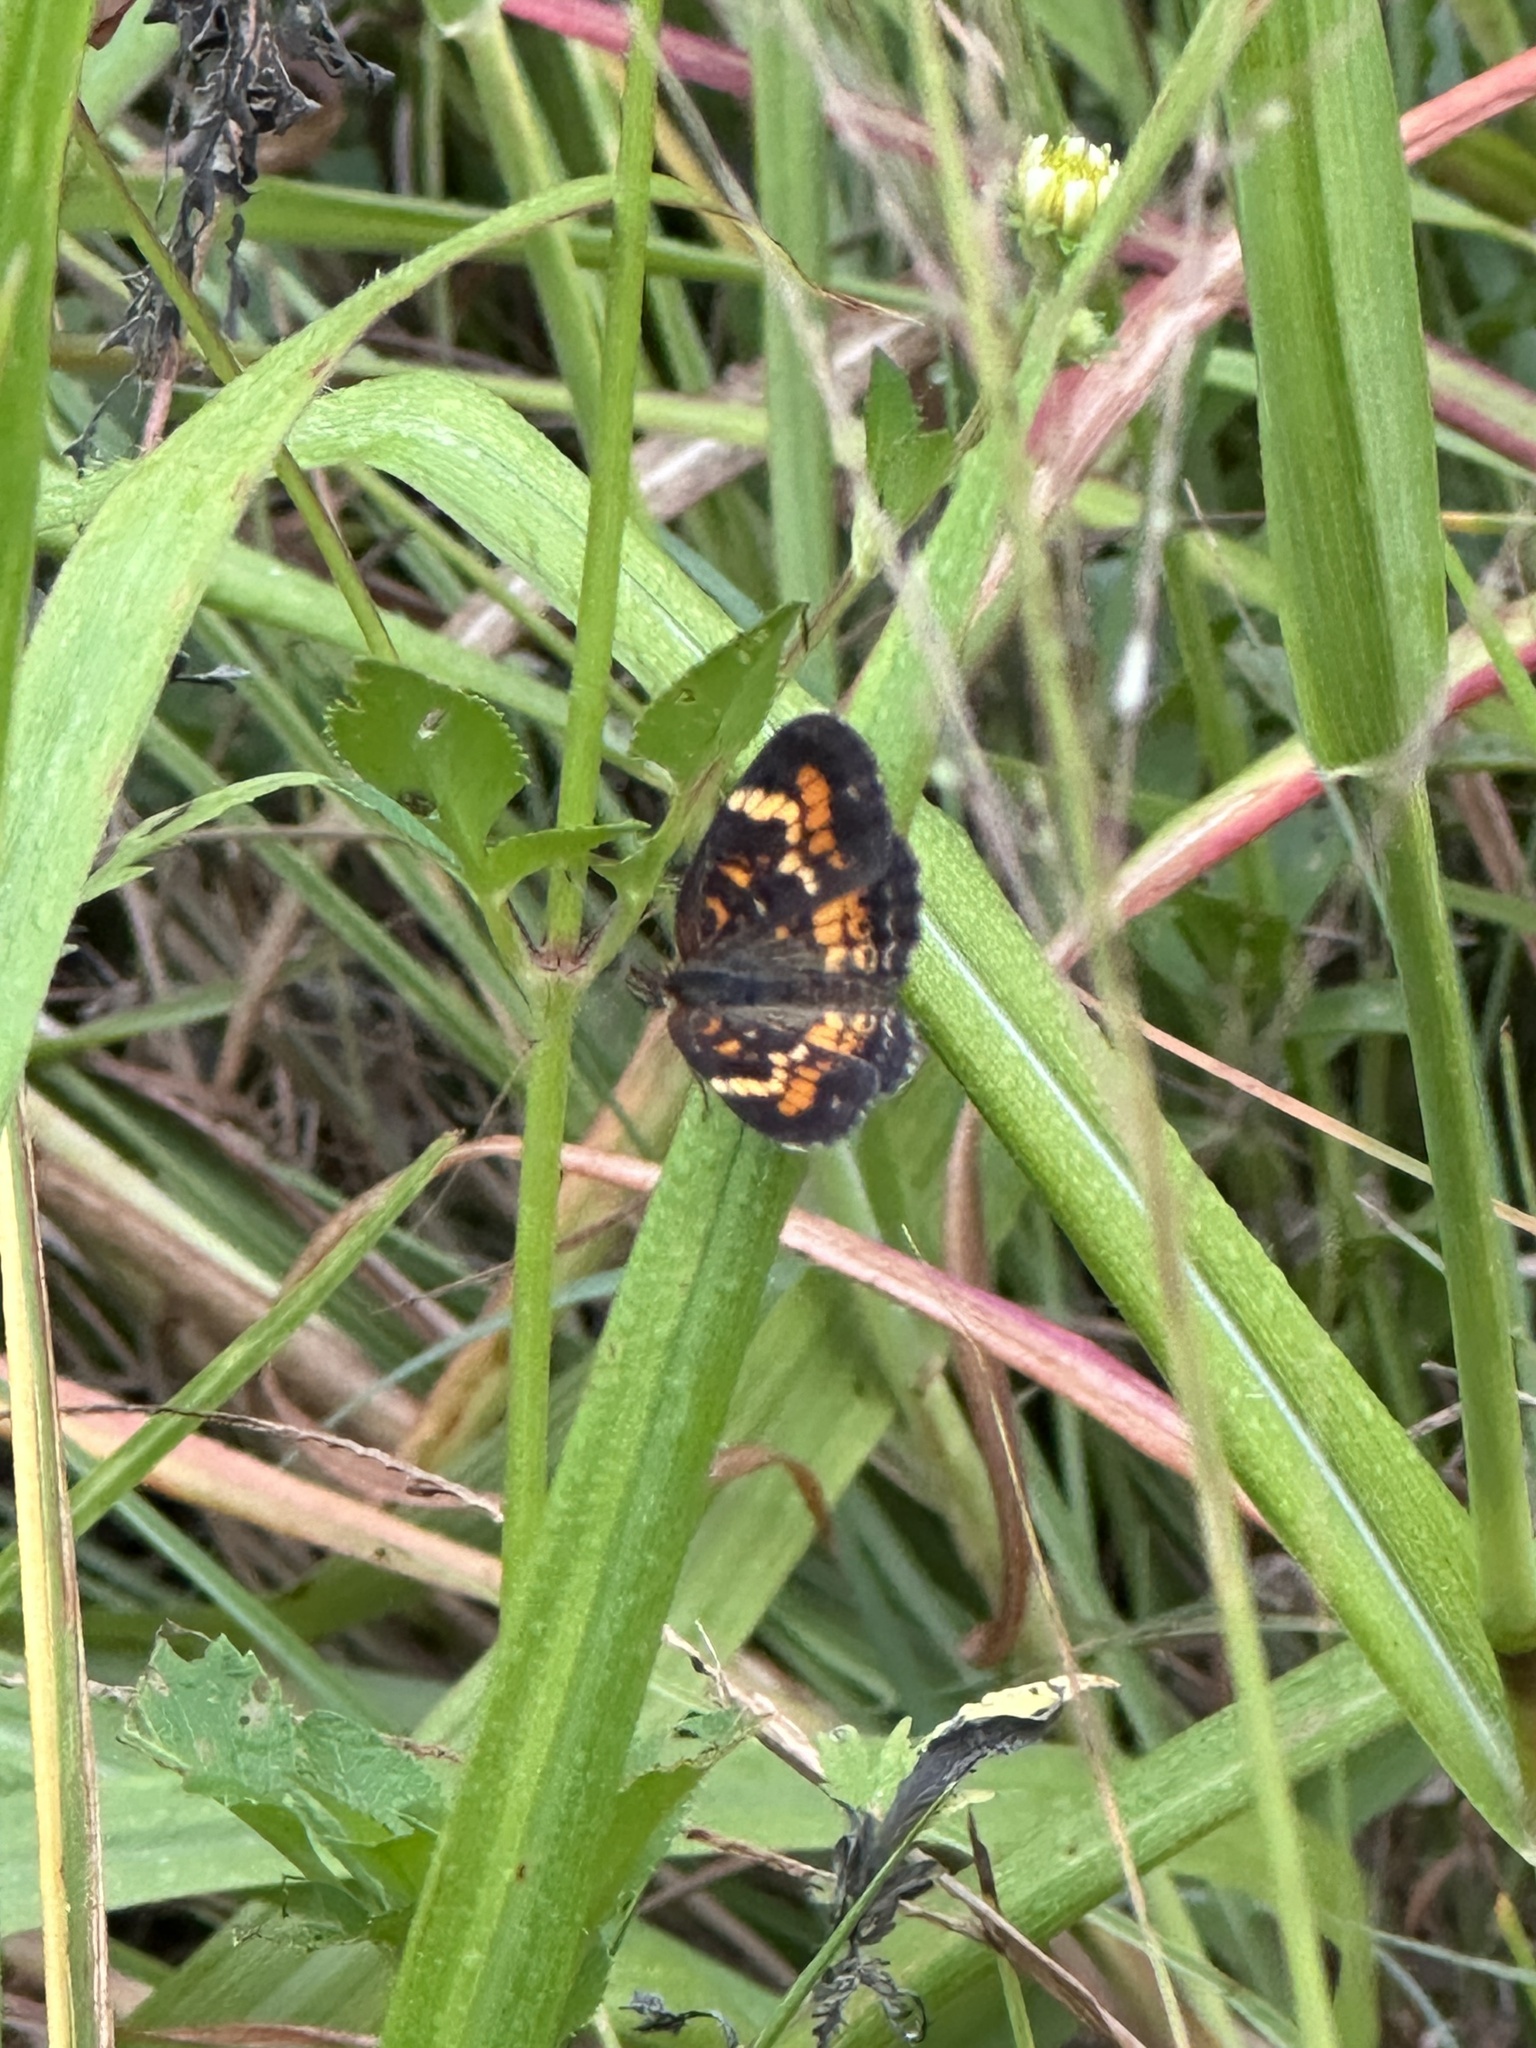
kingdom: Animalia
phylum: Arthropoda
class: Insecta
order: Lepidoptera
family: Nymphalidae
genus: Phyciodes
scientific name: Phyciodes phaon
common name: Phaon crescent
